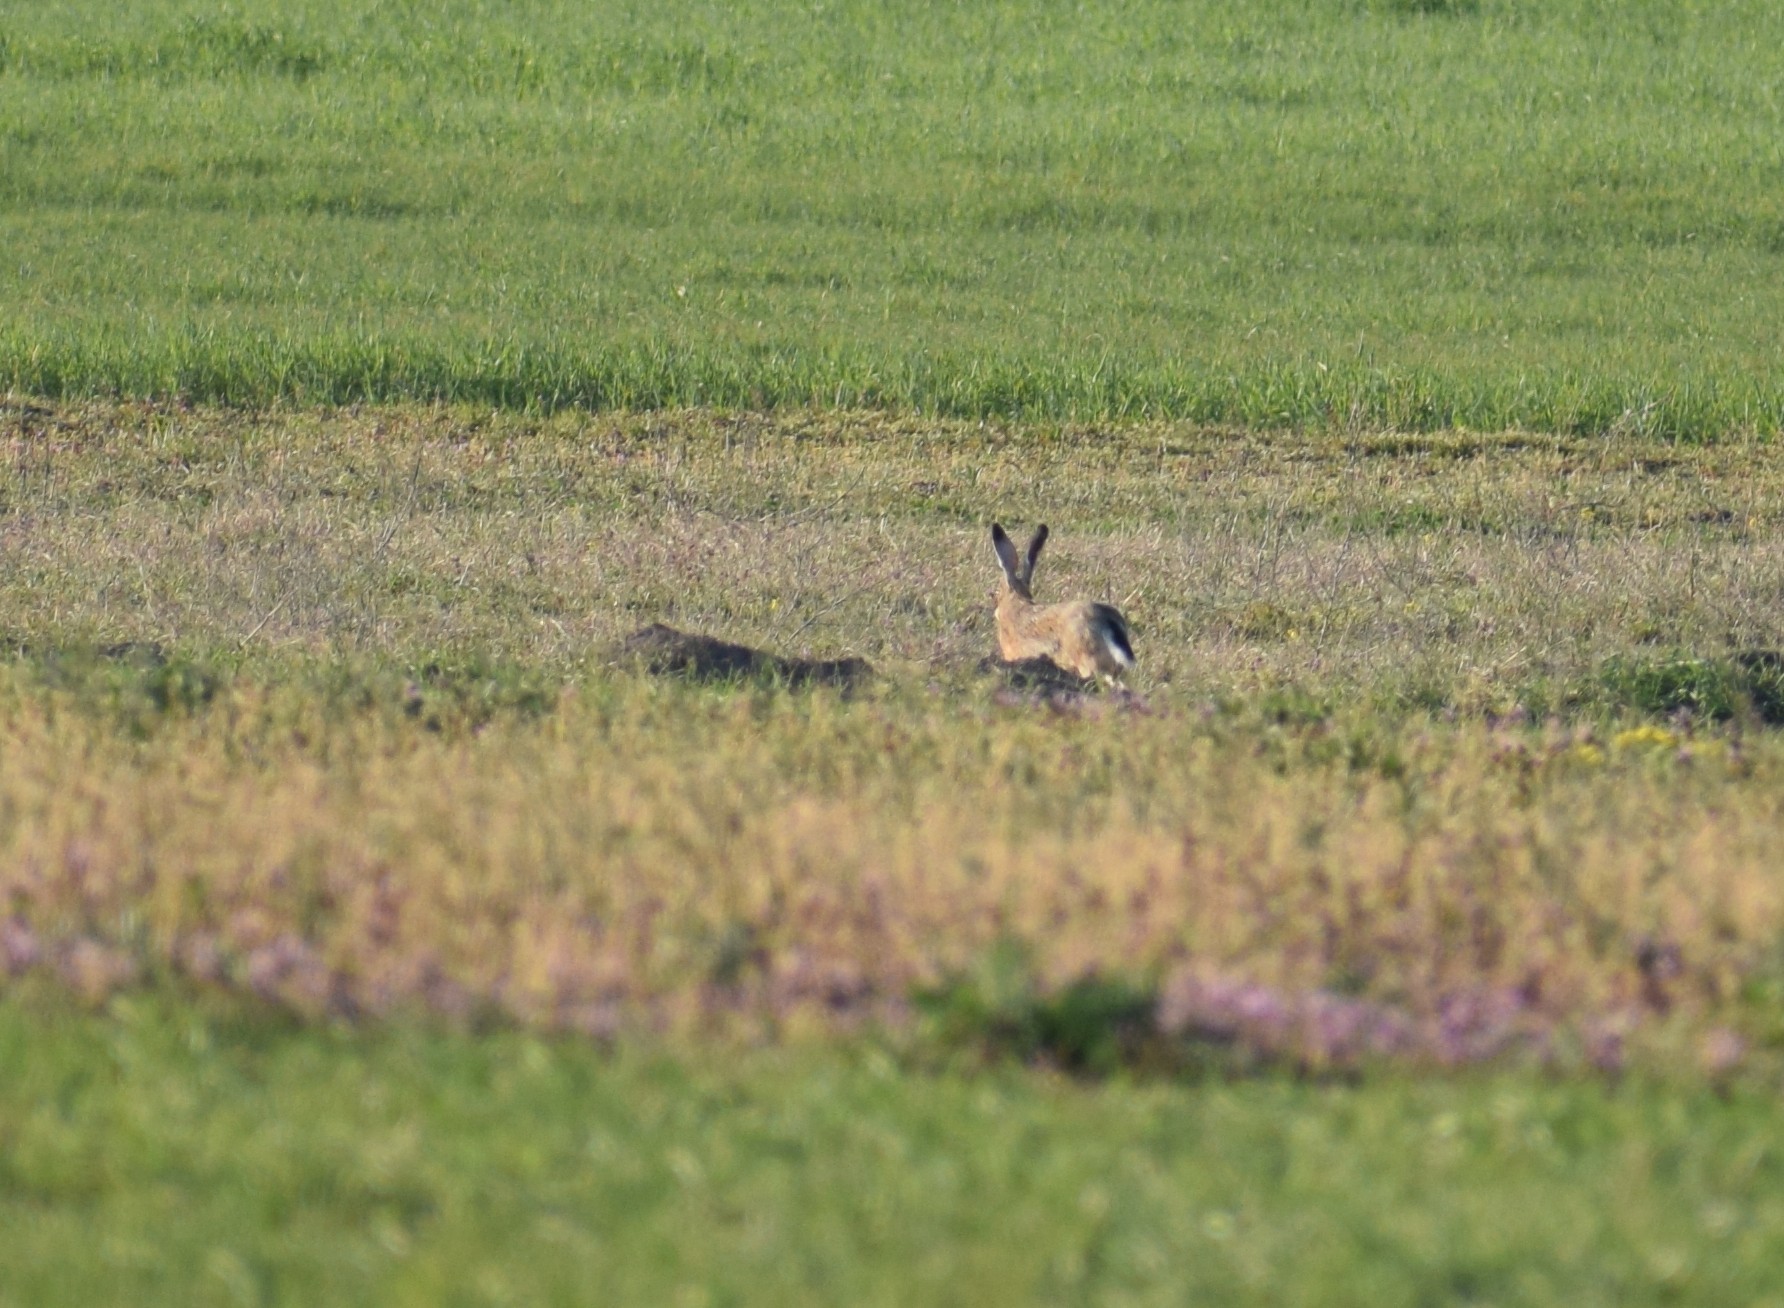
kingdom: Animalia
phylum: Chordata
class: Mammalia
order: Lagomorpha
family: Leporidae
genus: Lepus
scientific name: Lepus europaeus
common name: European hare
